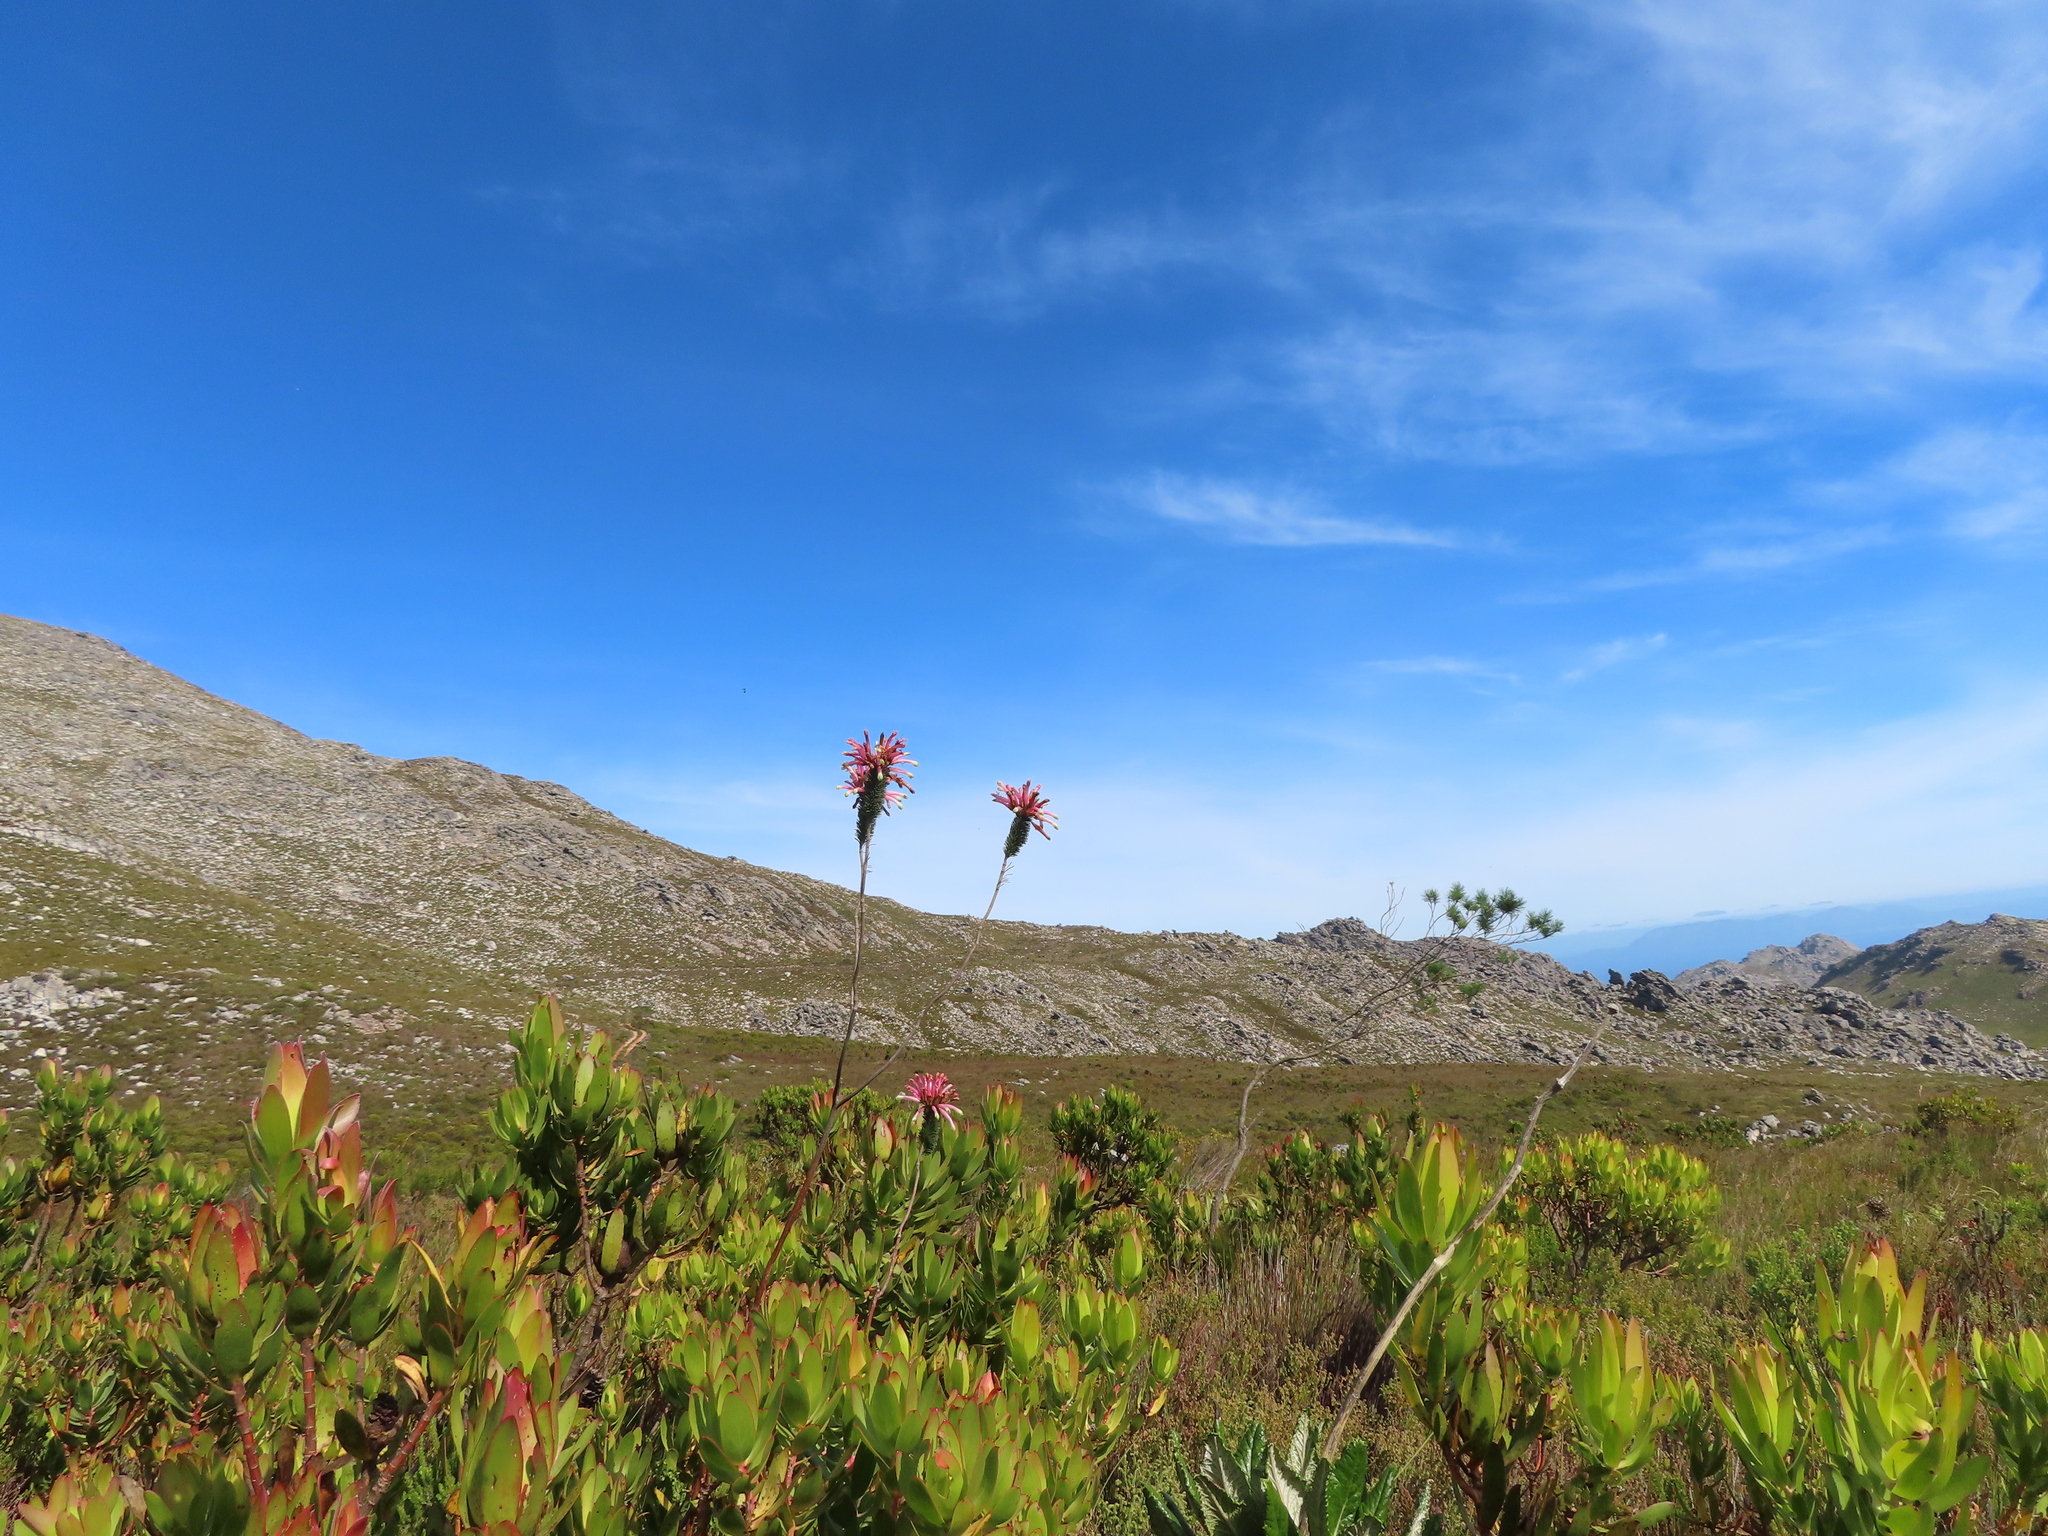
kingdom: Plantae
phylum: Tracheophyta
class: Magnoliopsida
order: Ericales
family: Ericaceae
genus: Erica
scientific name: Erica fascicularis
